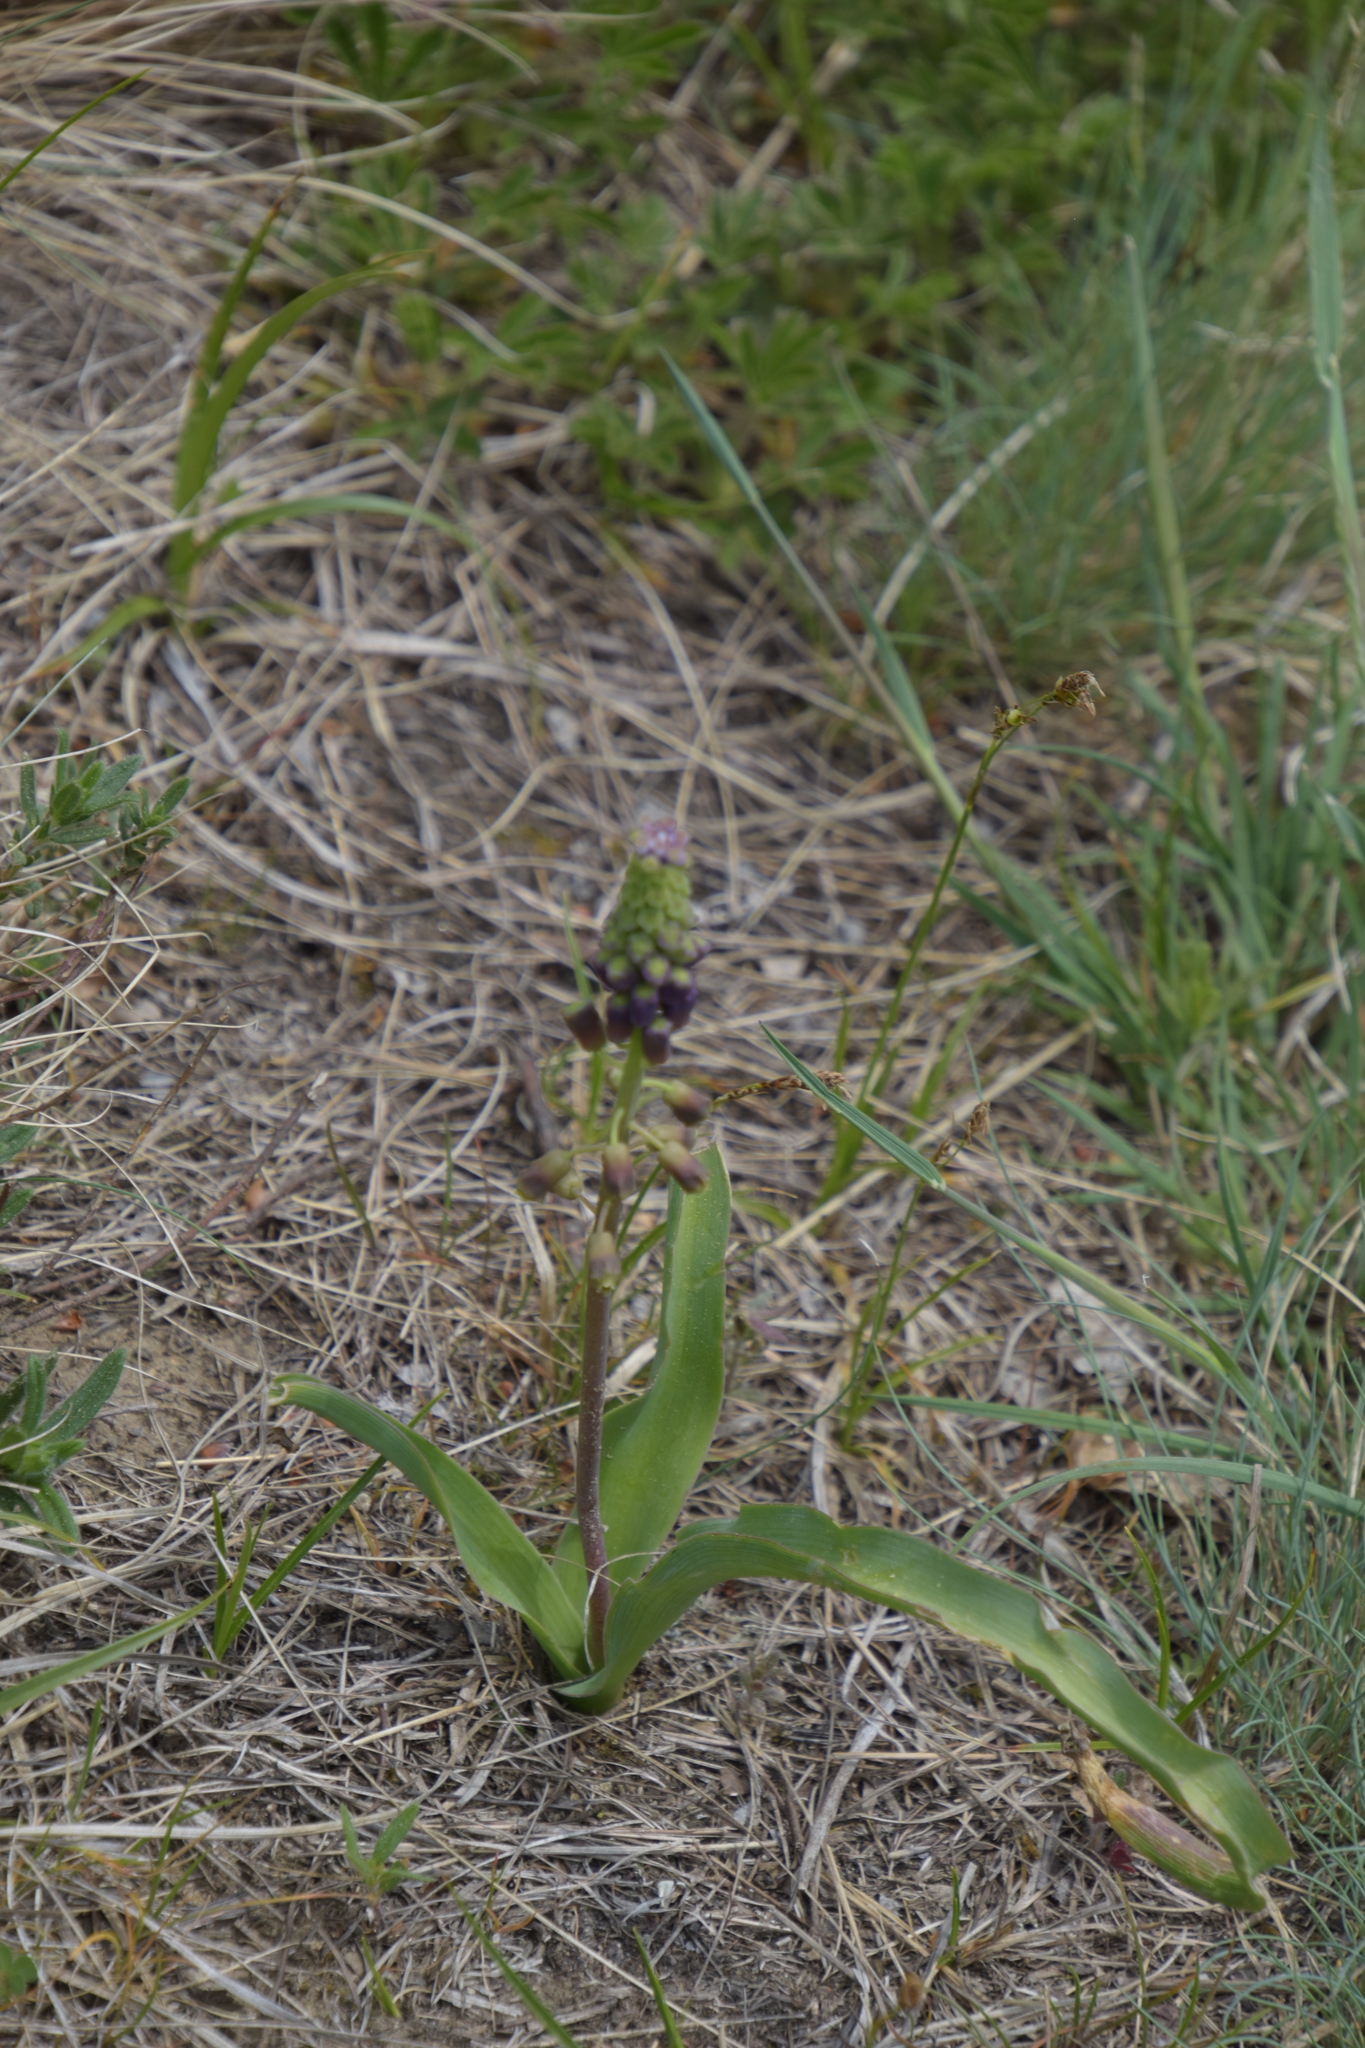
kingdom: Plantae
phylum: Tracheophyta
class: Liliopsida
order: Asparagales
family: Asparagaceae
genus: Muscari
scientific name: Muscari comosum
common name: Tassel hyacinth
